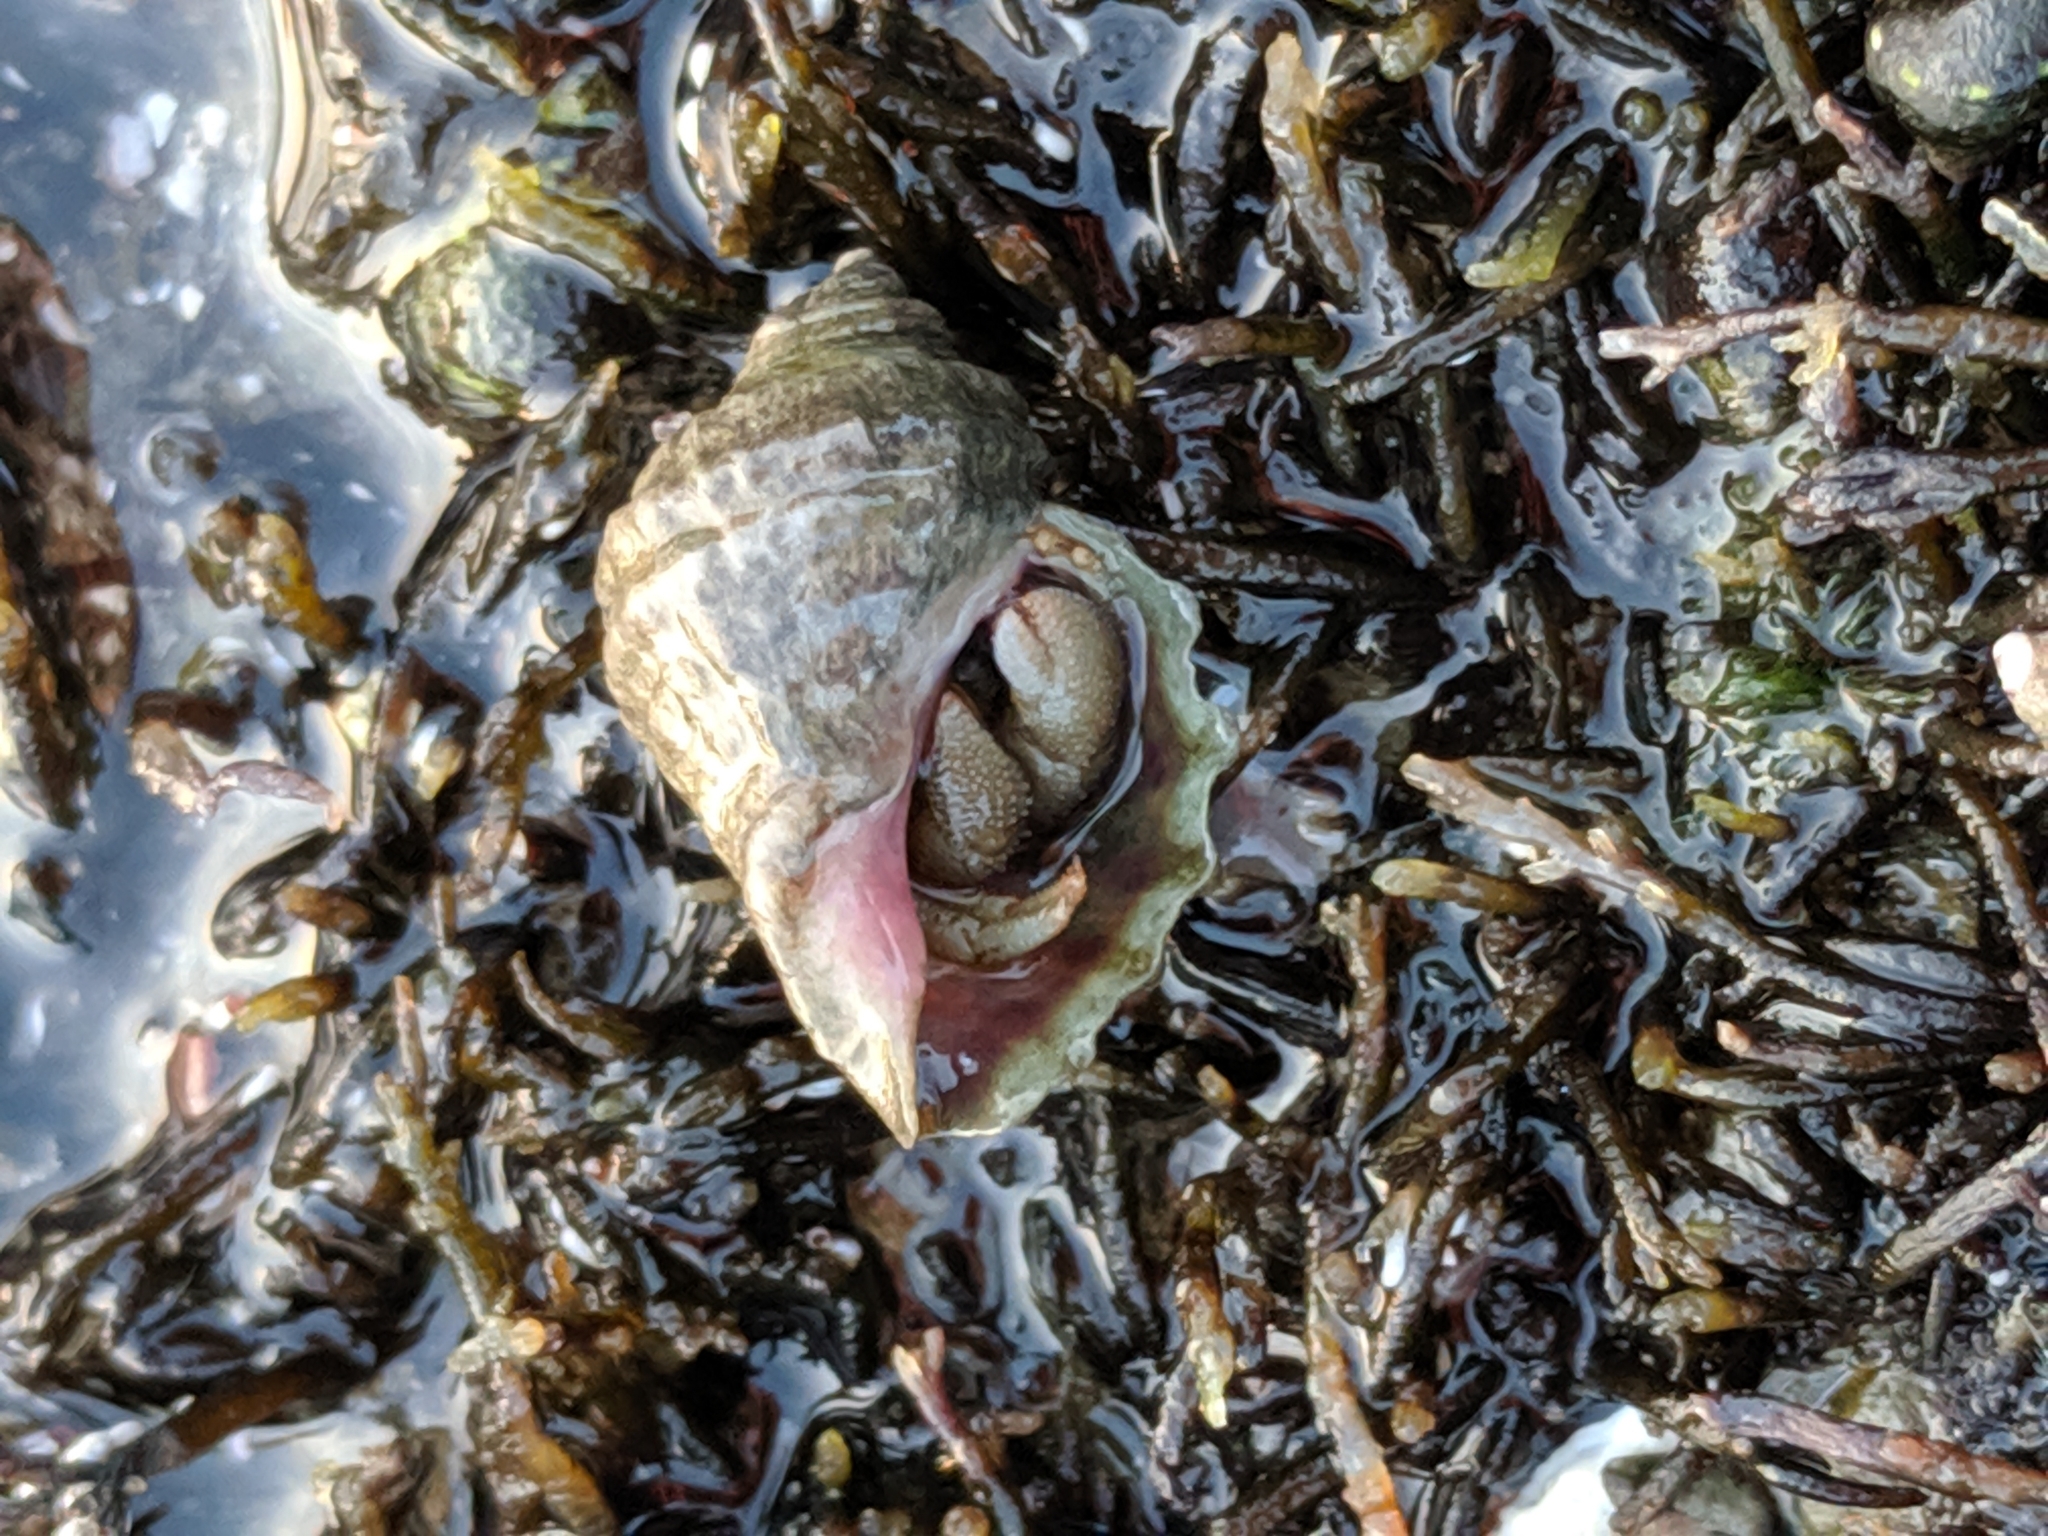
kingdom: Animalia
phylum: Mollusca
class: Gastropoda
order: Neogastropoda
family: Muricidae
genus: Nucella
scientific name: Nucella ostrina
